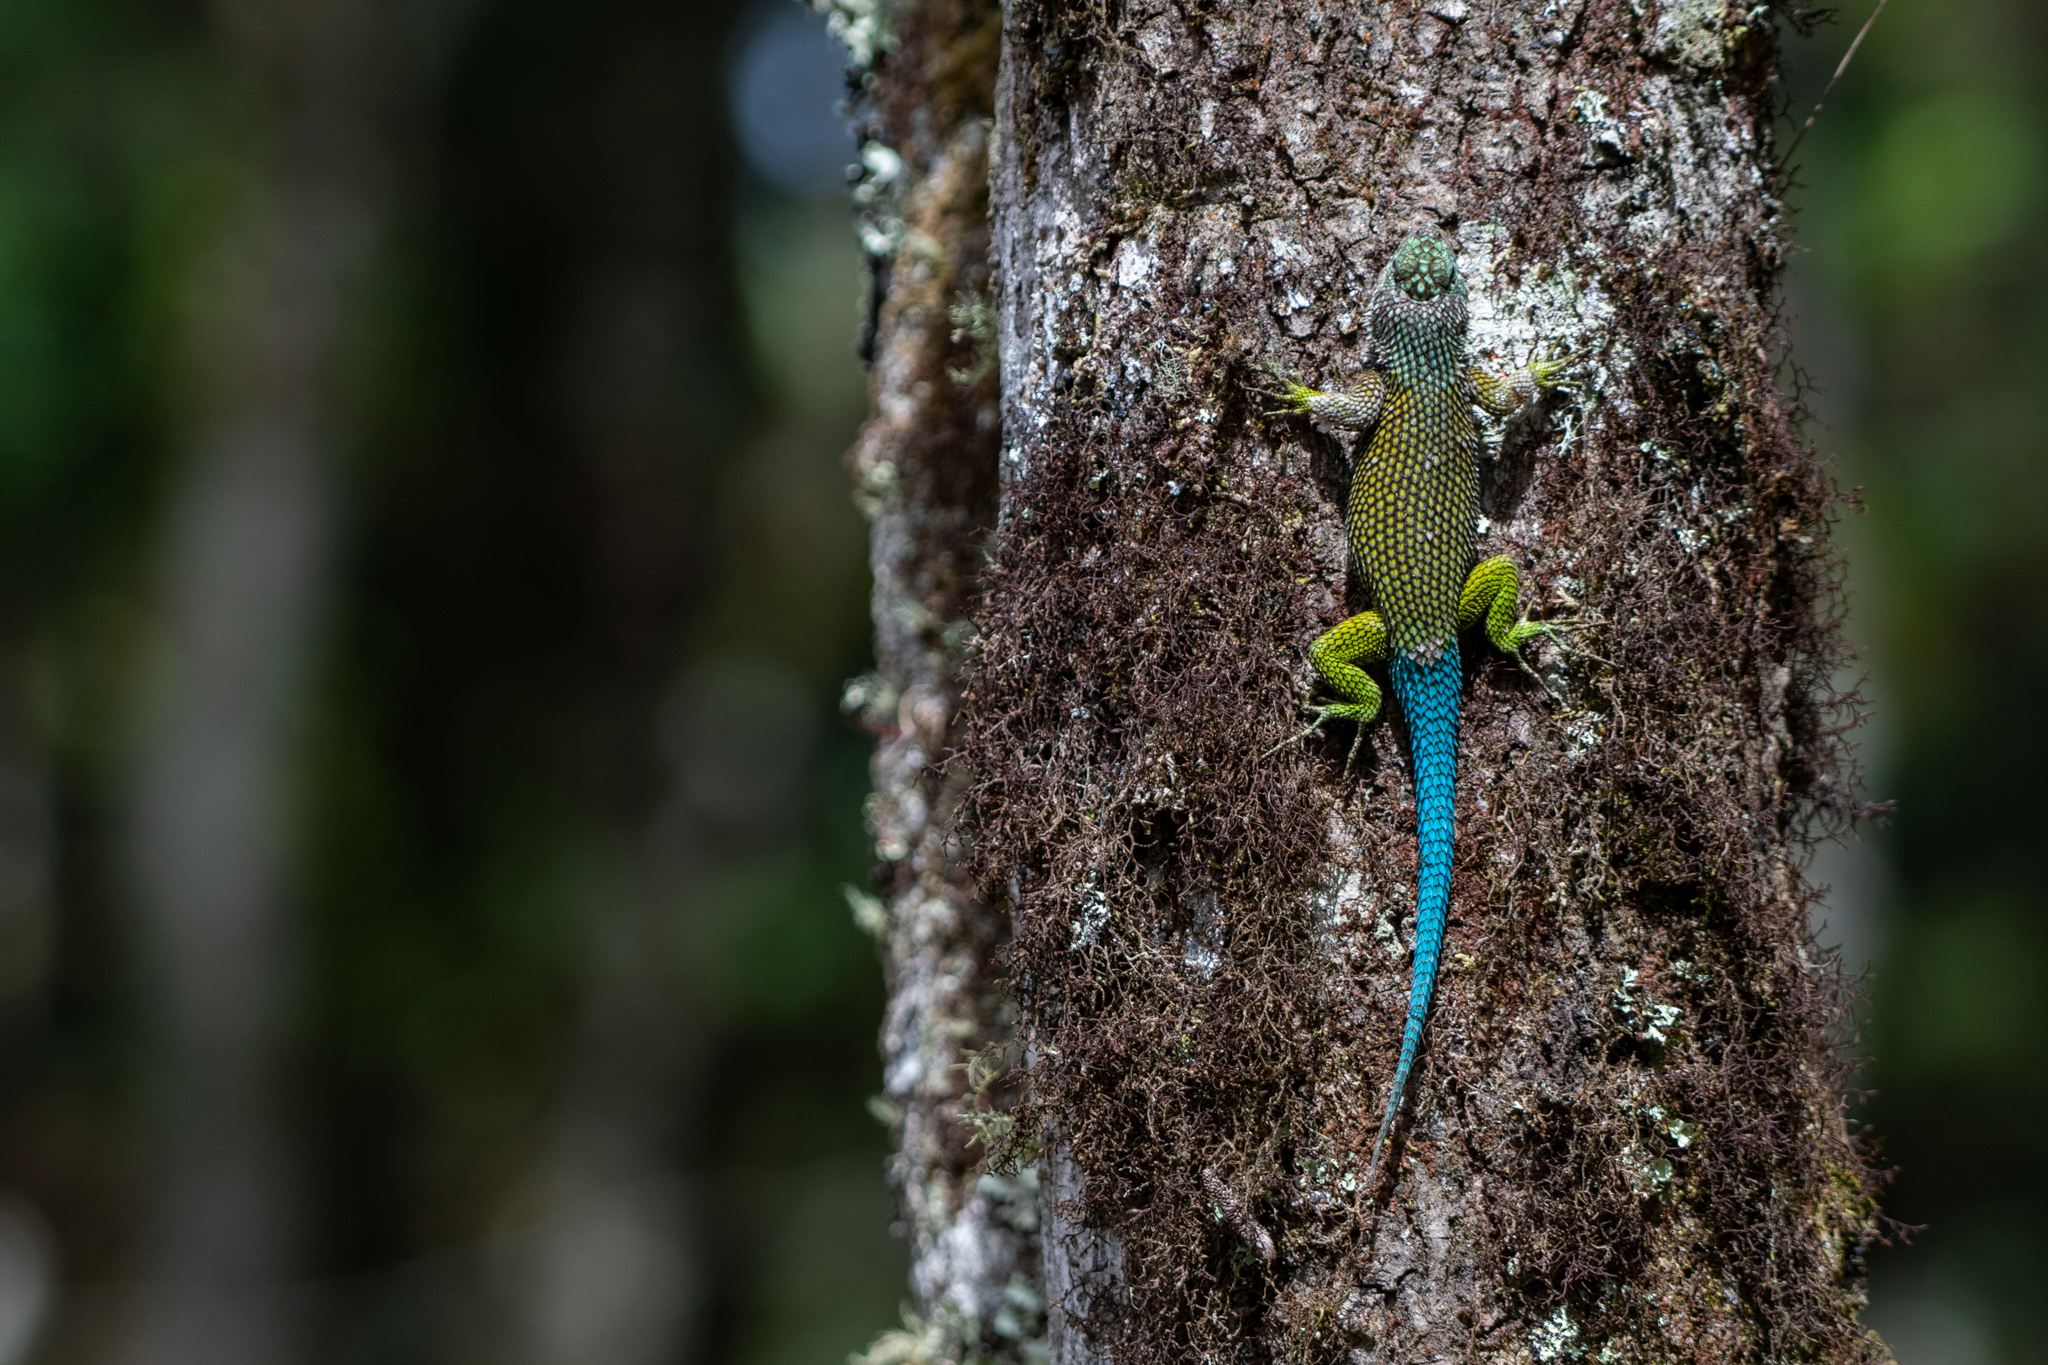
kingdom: Animalia
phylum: Chordata
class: Squamata
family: Phrynosomatidae
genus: Sceloporus
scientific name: Sceloporus esperanzae
